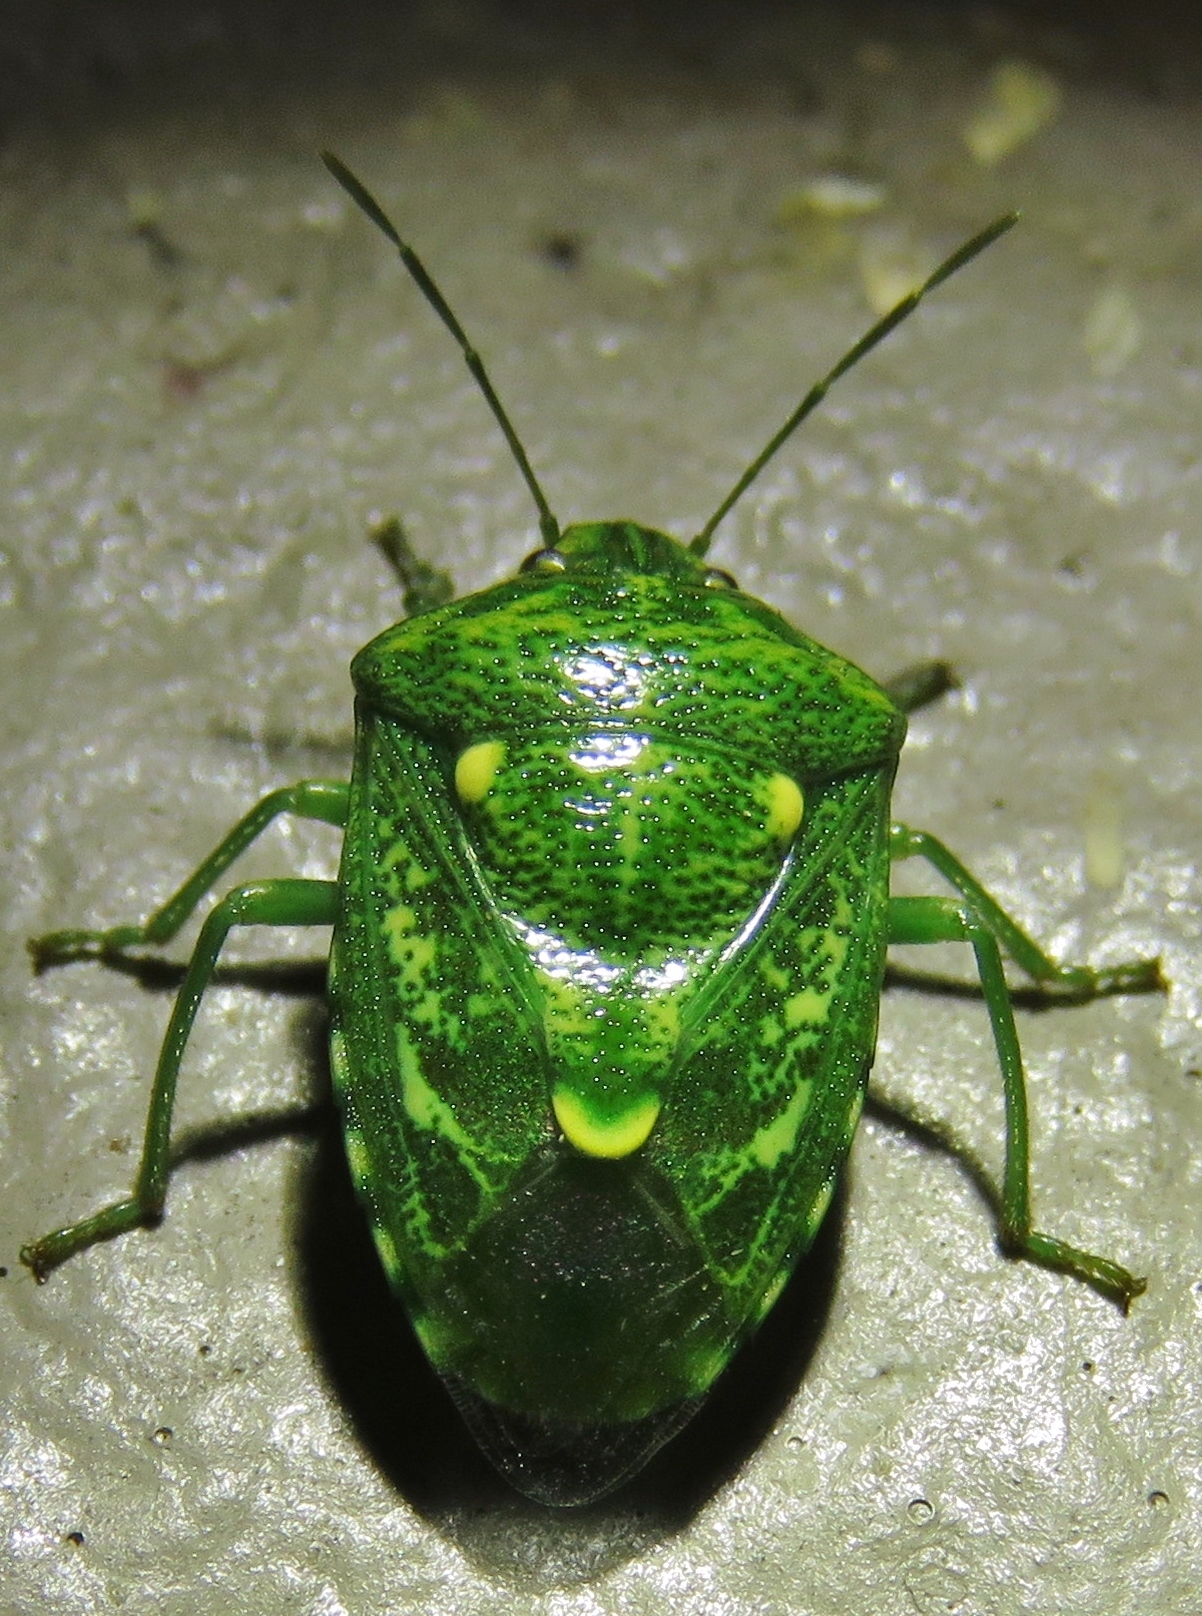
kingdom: Animalia
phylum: Arthropoda
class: Insecta
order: Hemiptera
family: Pentatomidae
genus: Banasa
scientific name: Banasa euchlora
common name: Cedar berry bug
